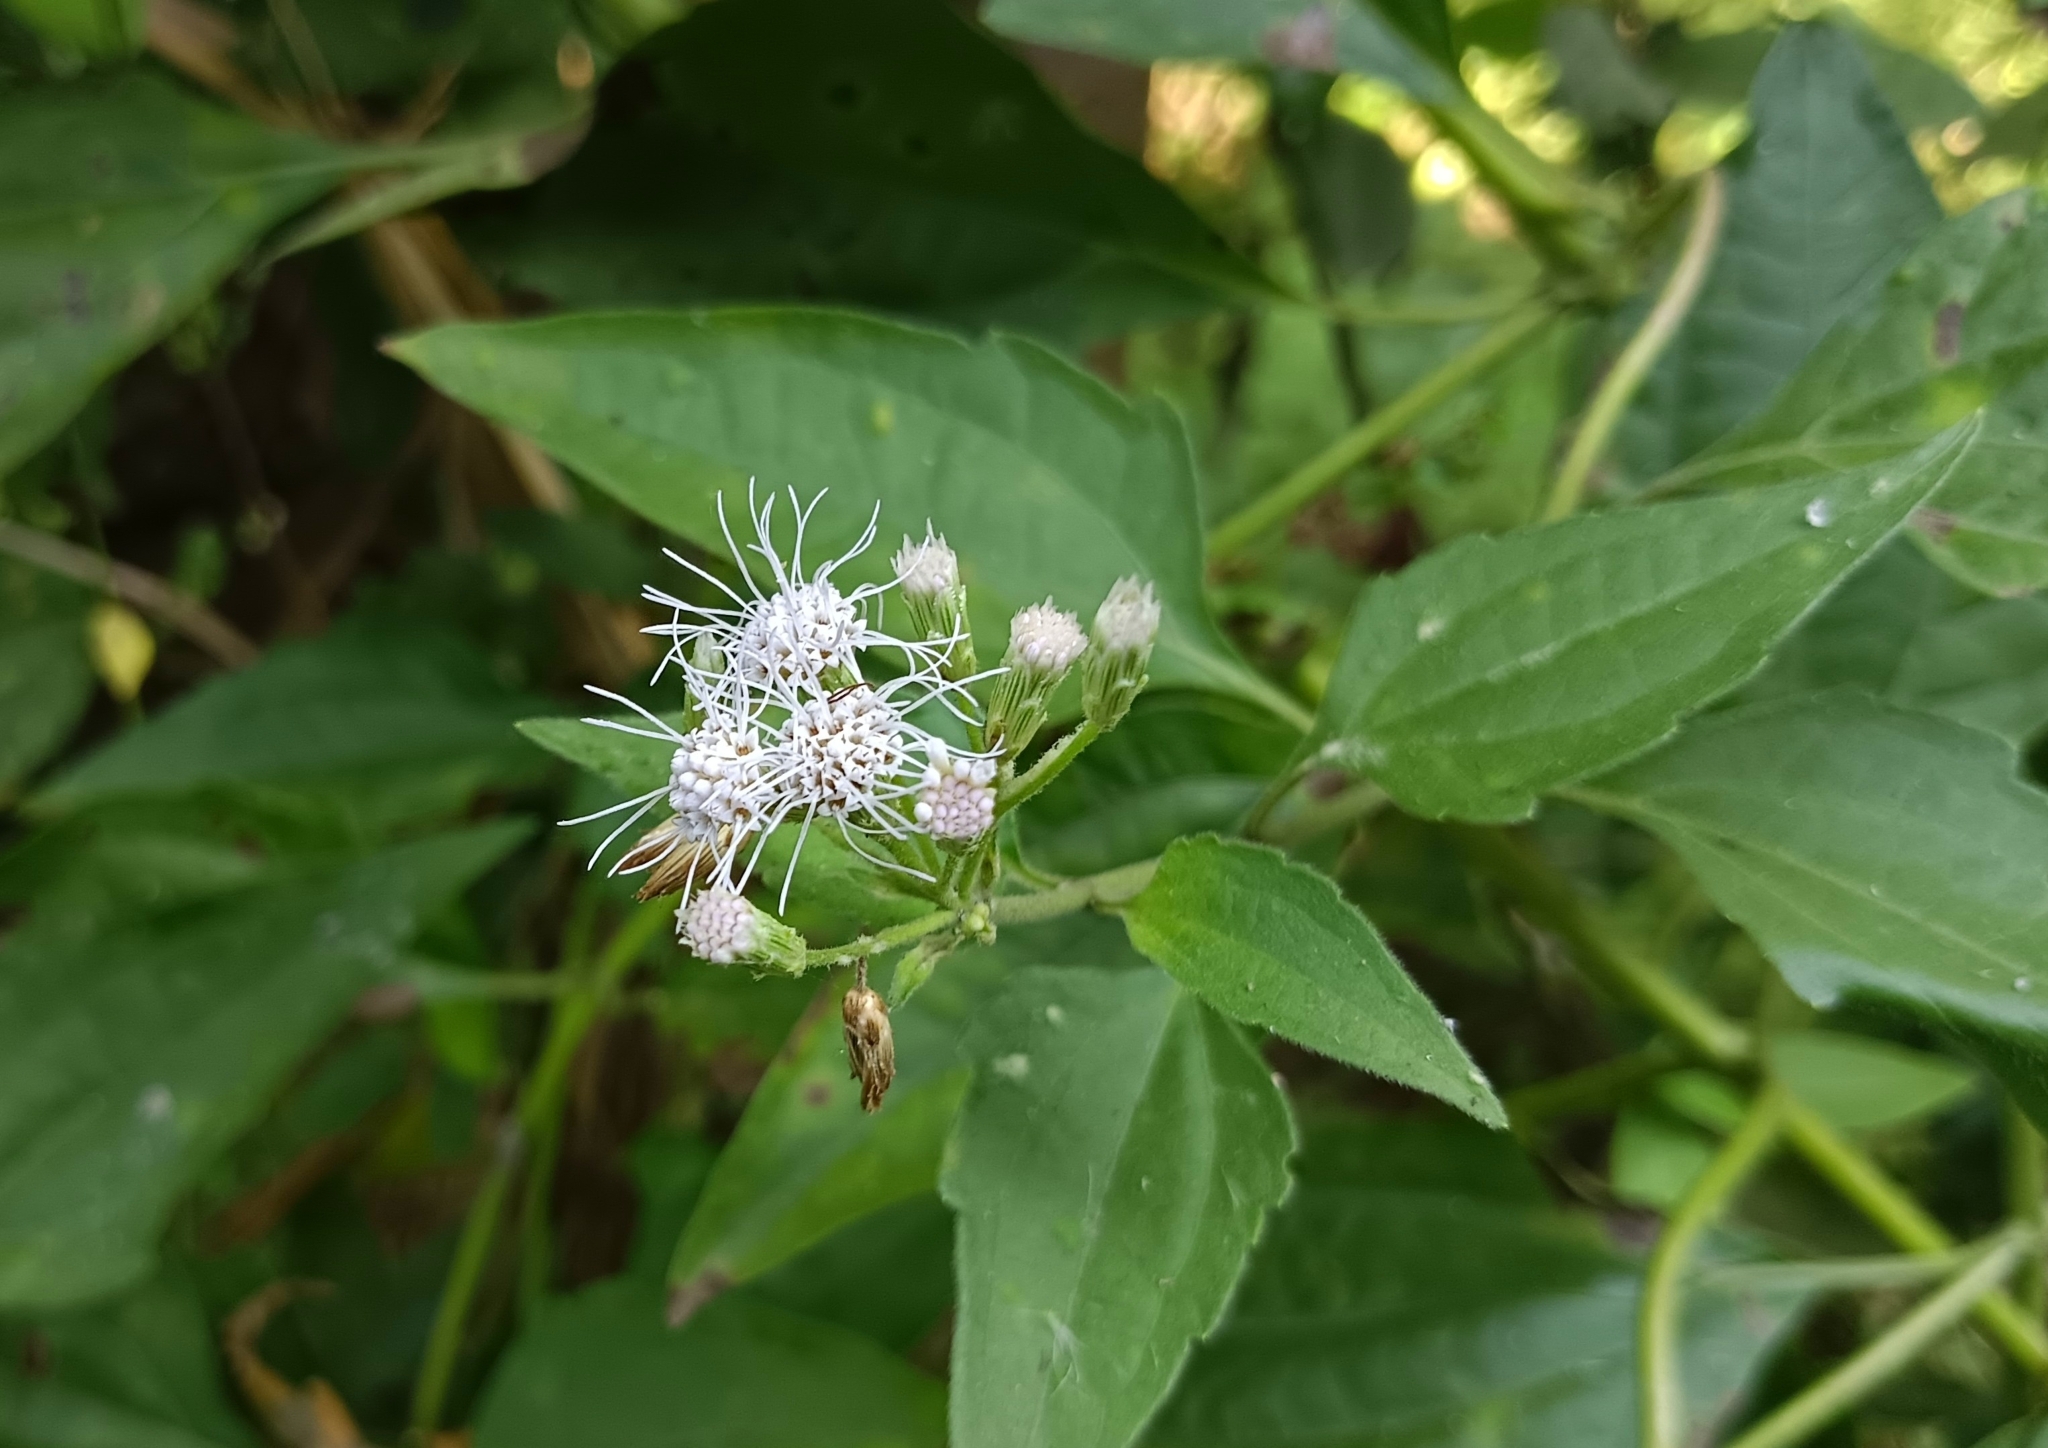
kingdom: Plantae
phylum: Tracheophyta
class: Magnoliopsida
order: Asterales
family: Asteraceae
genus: Chromolaena
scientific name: Chromolaena odorata
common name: Siamweed
